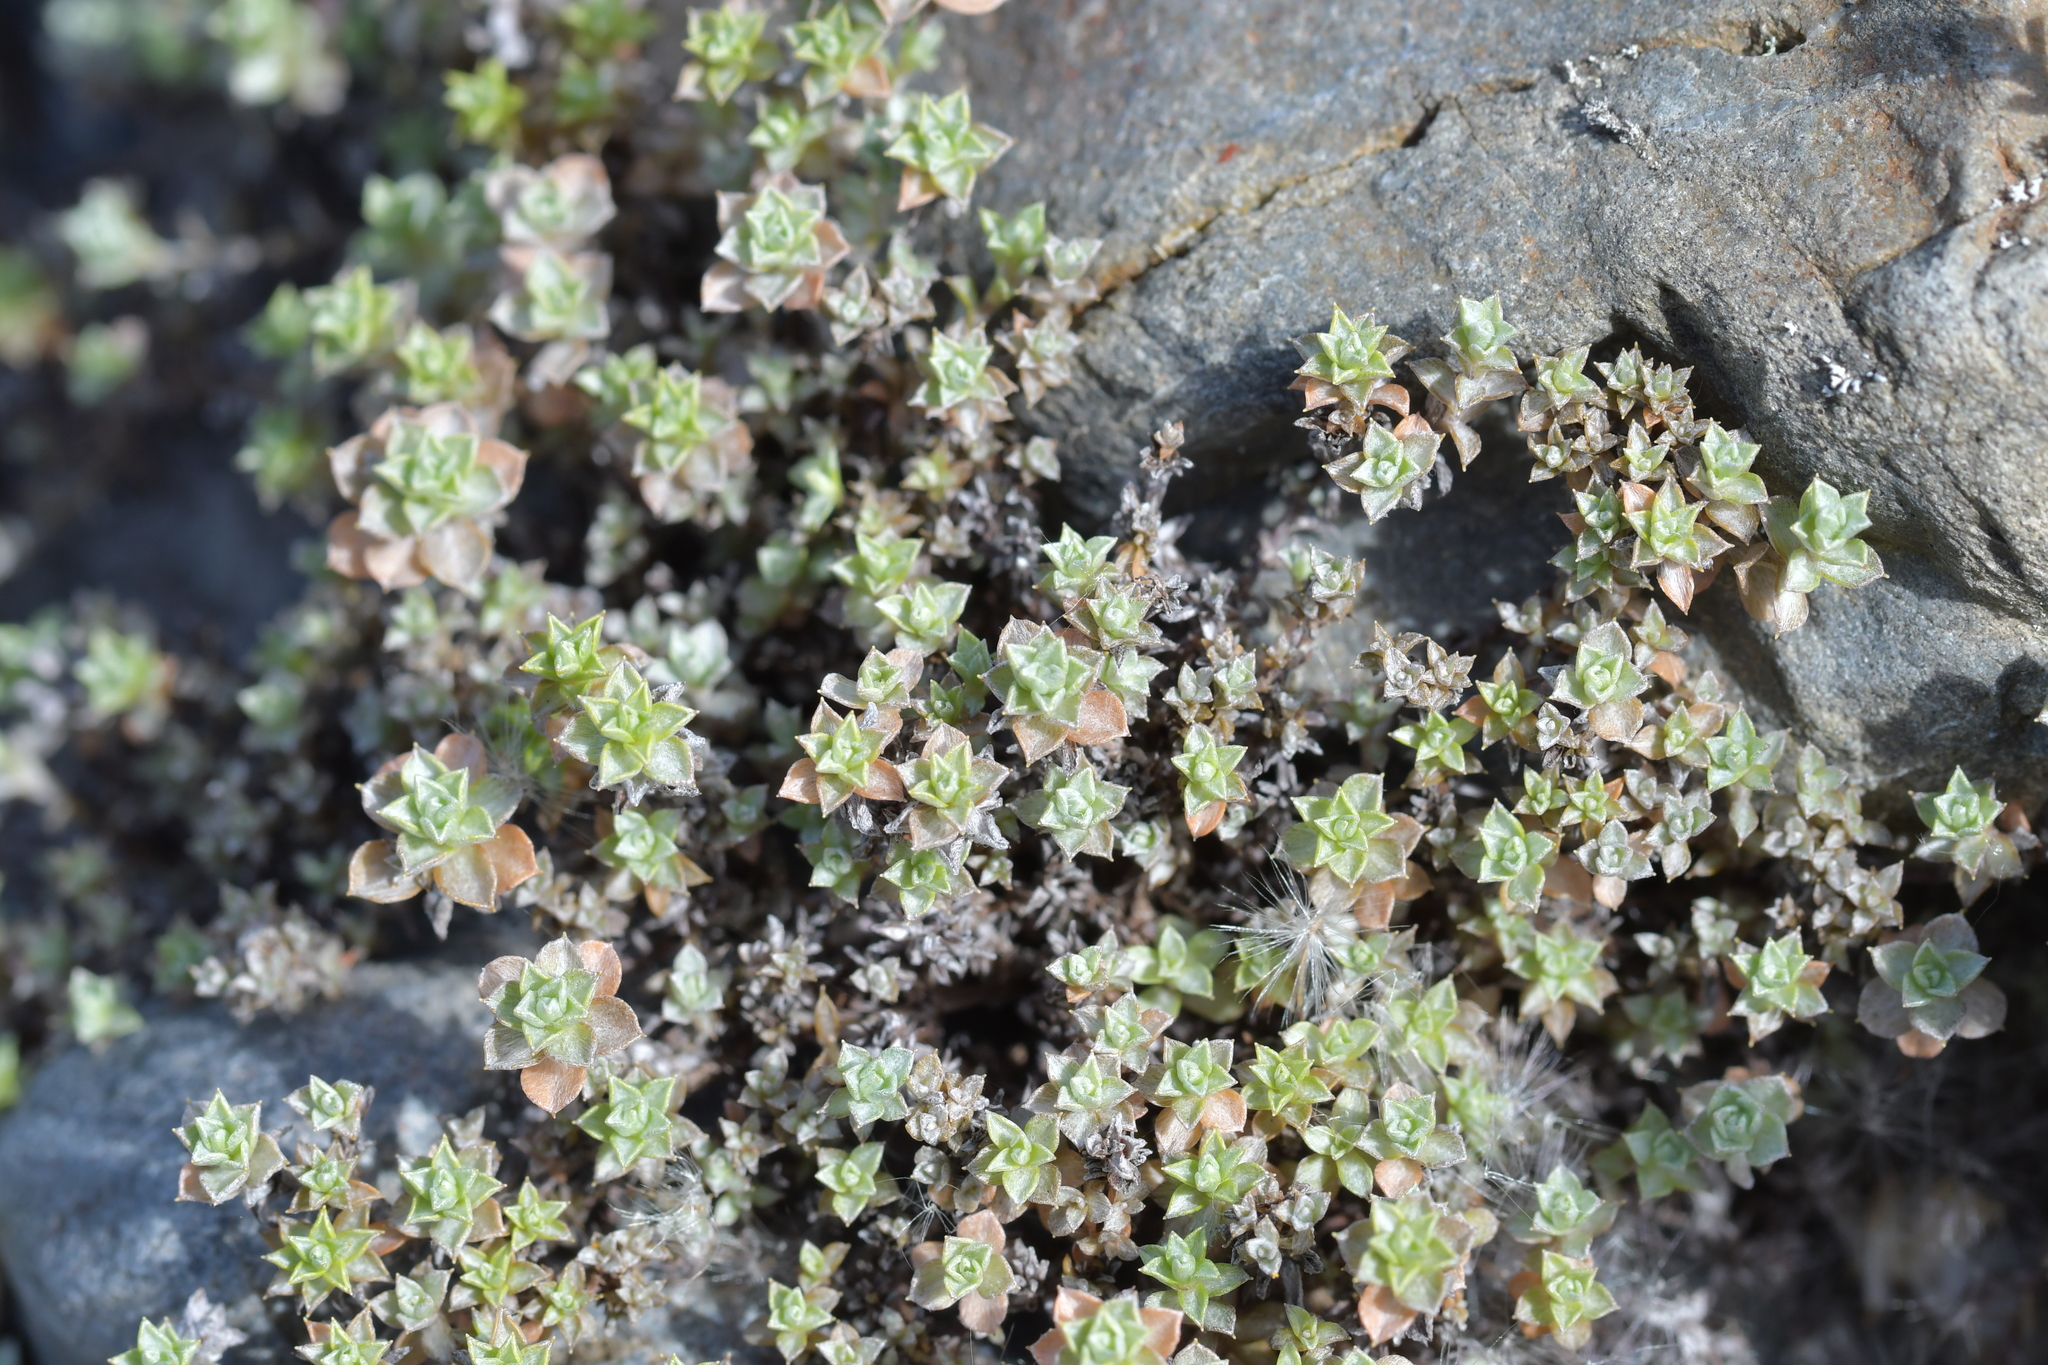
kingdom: Plantae
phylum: Tracheophyta
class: Magnoliopsida
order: Asterales
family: Asteraceae
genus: Anaphalioides
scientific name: Anaphalioides bellidioides
